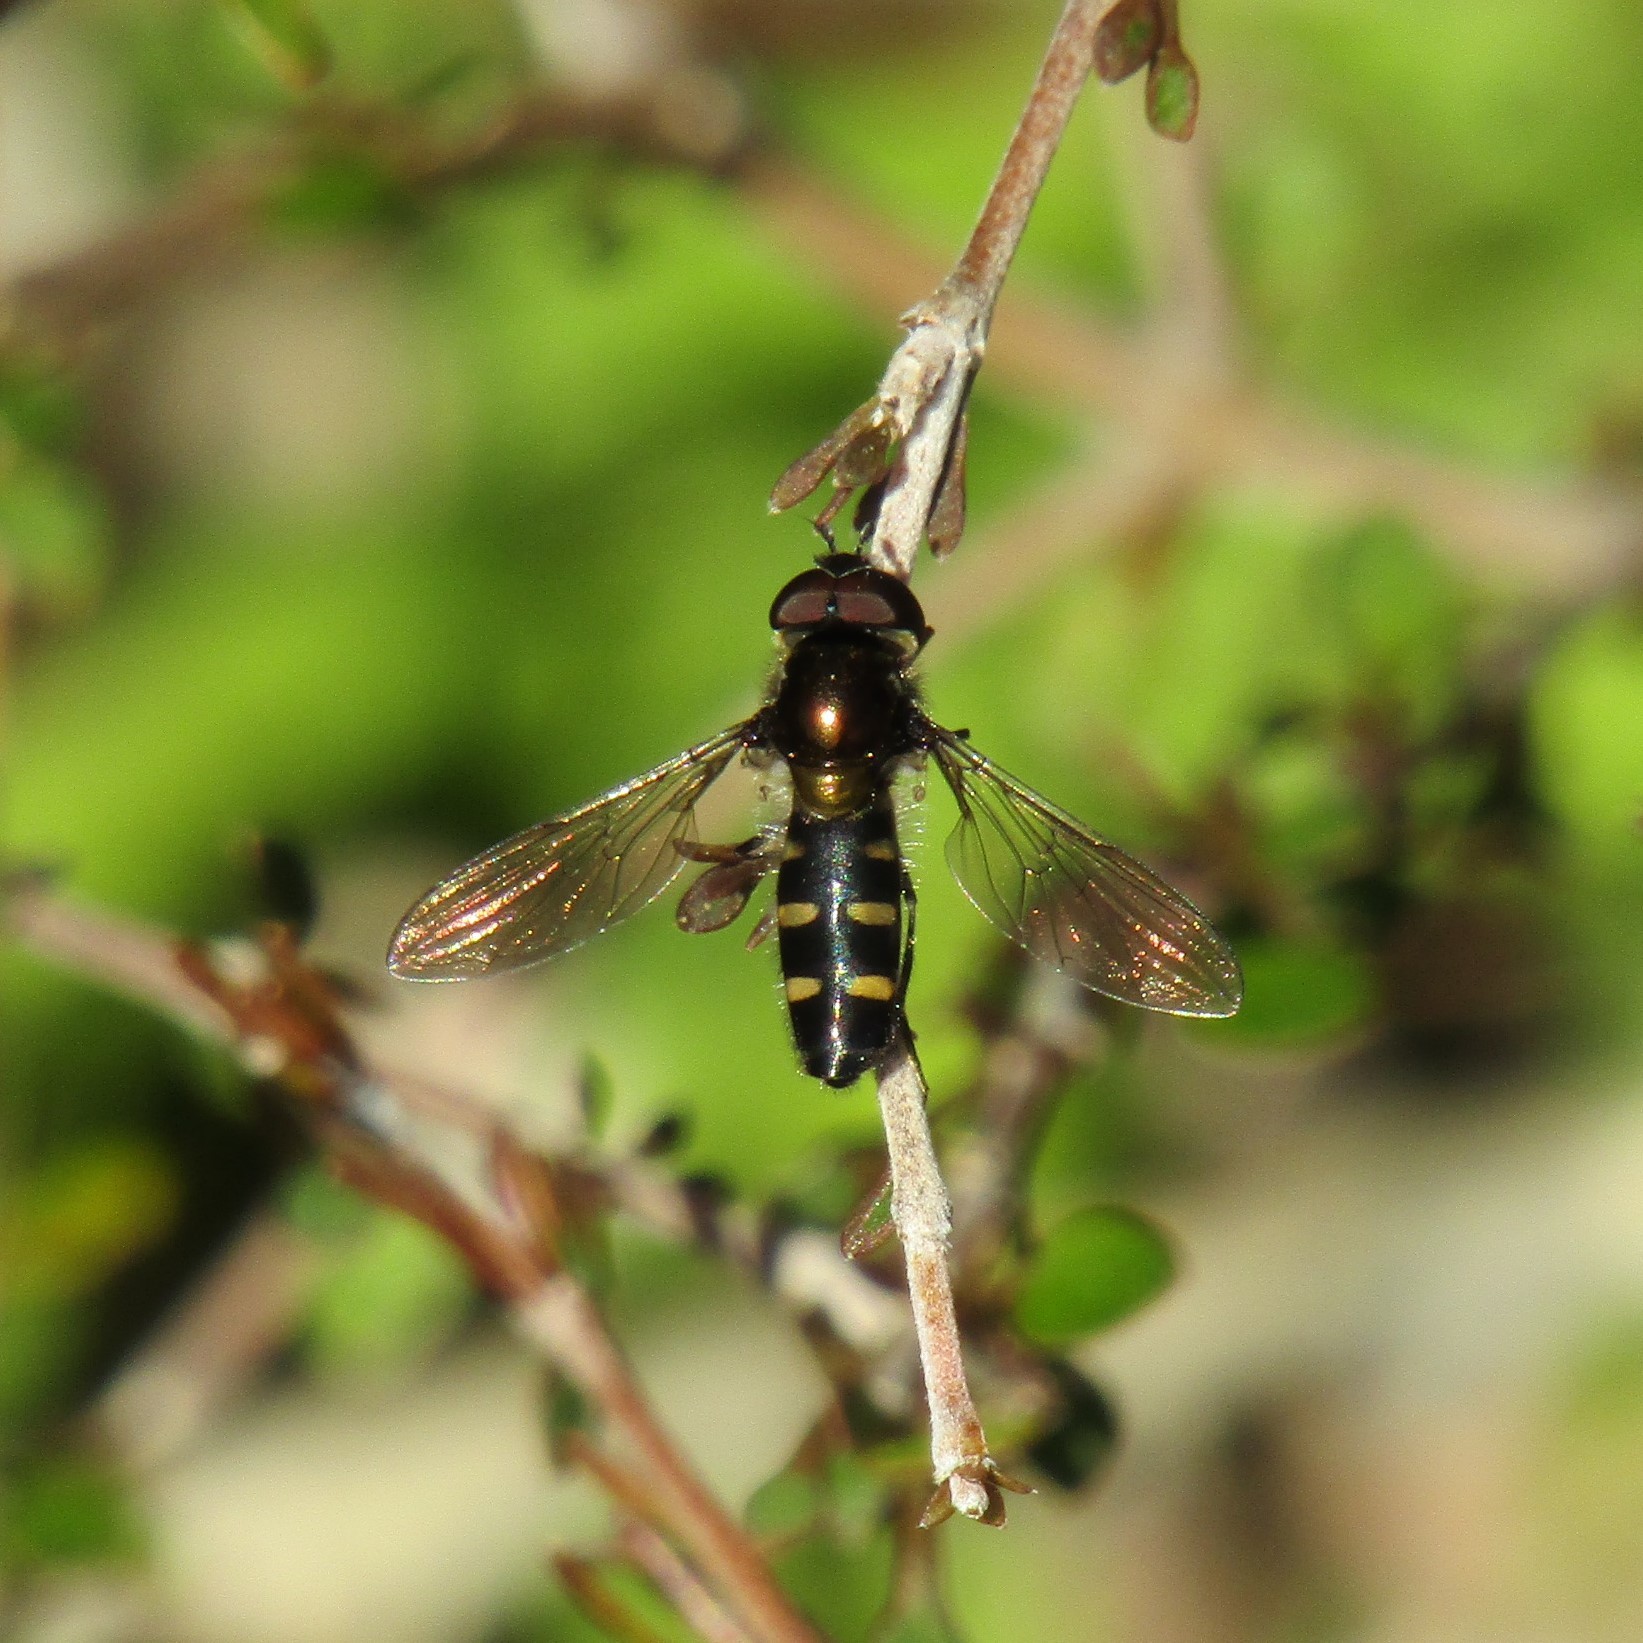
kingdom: Animalia
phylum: Arthropoda
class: Insecta
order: Diptera
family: Syrphidae
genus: Melangyna
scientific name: Melangyna novaezelandiae
